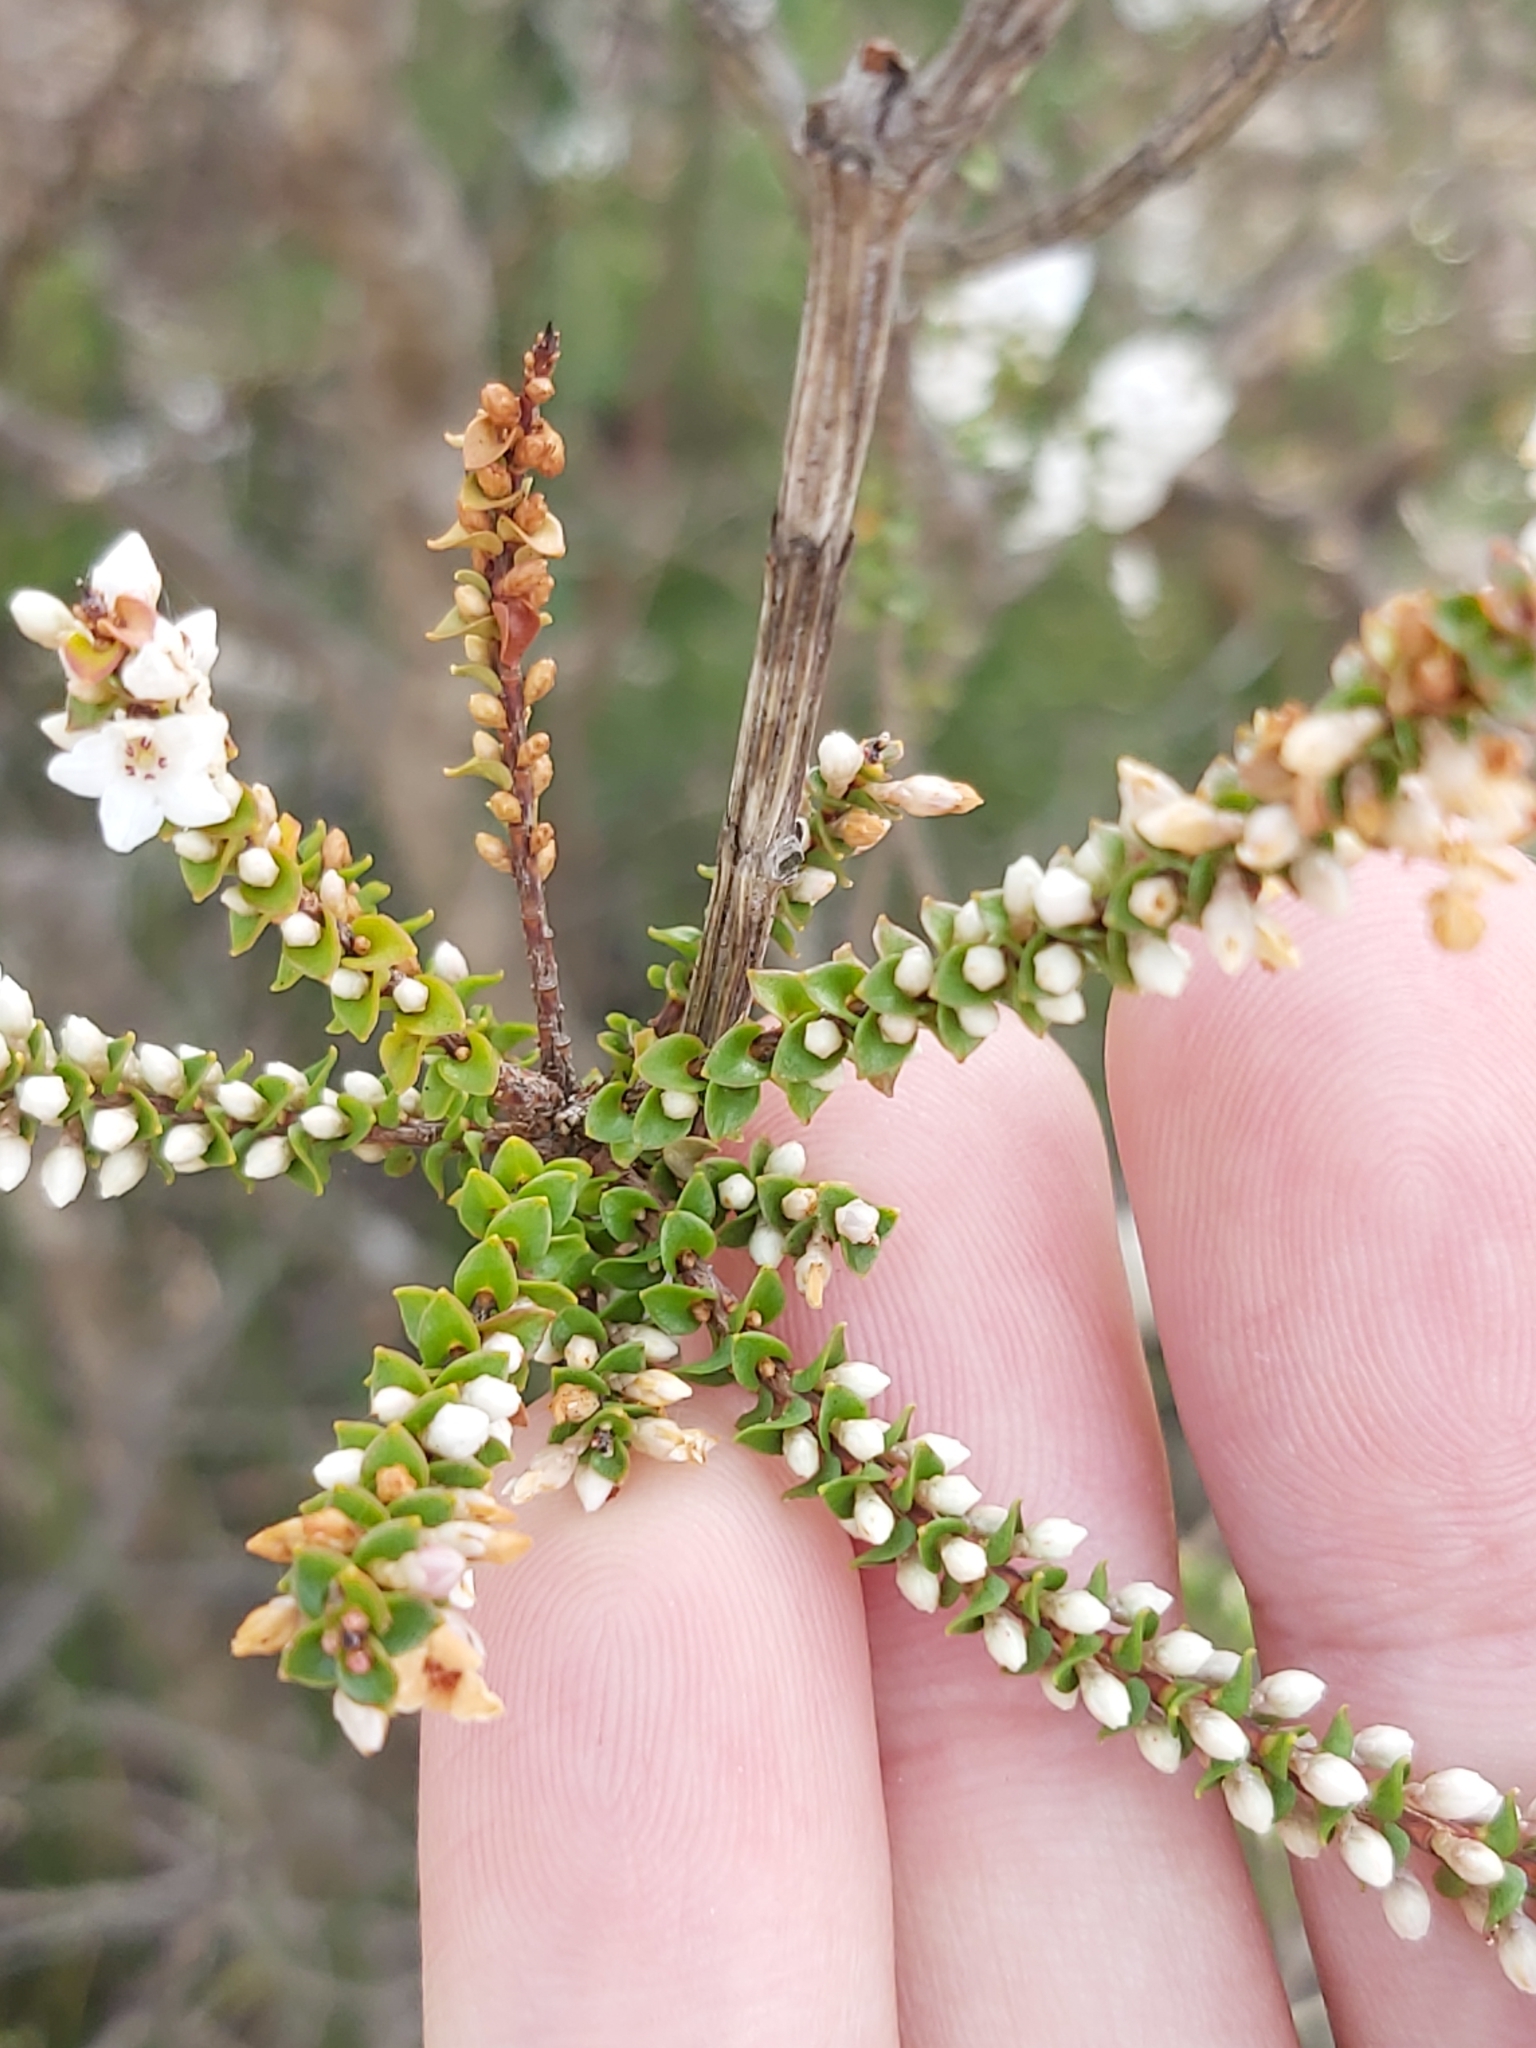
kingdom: Plantae
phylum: Tracheophyta
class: Magnoliopsida
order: Ericales
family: Ericaceae
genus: Epacris
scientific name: Epacris microphylla
